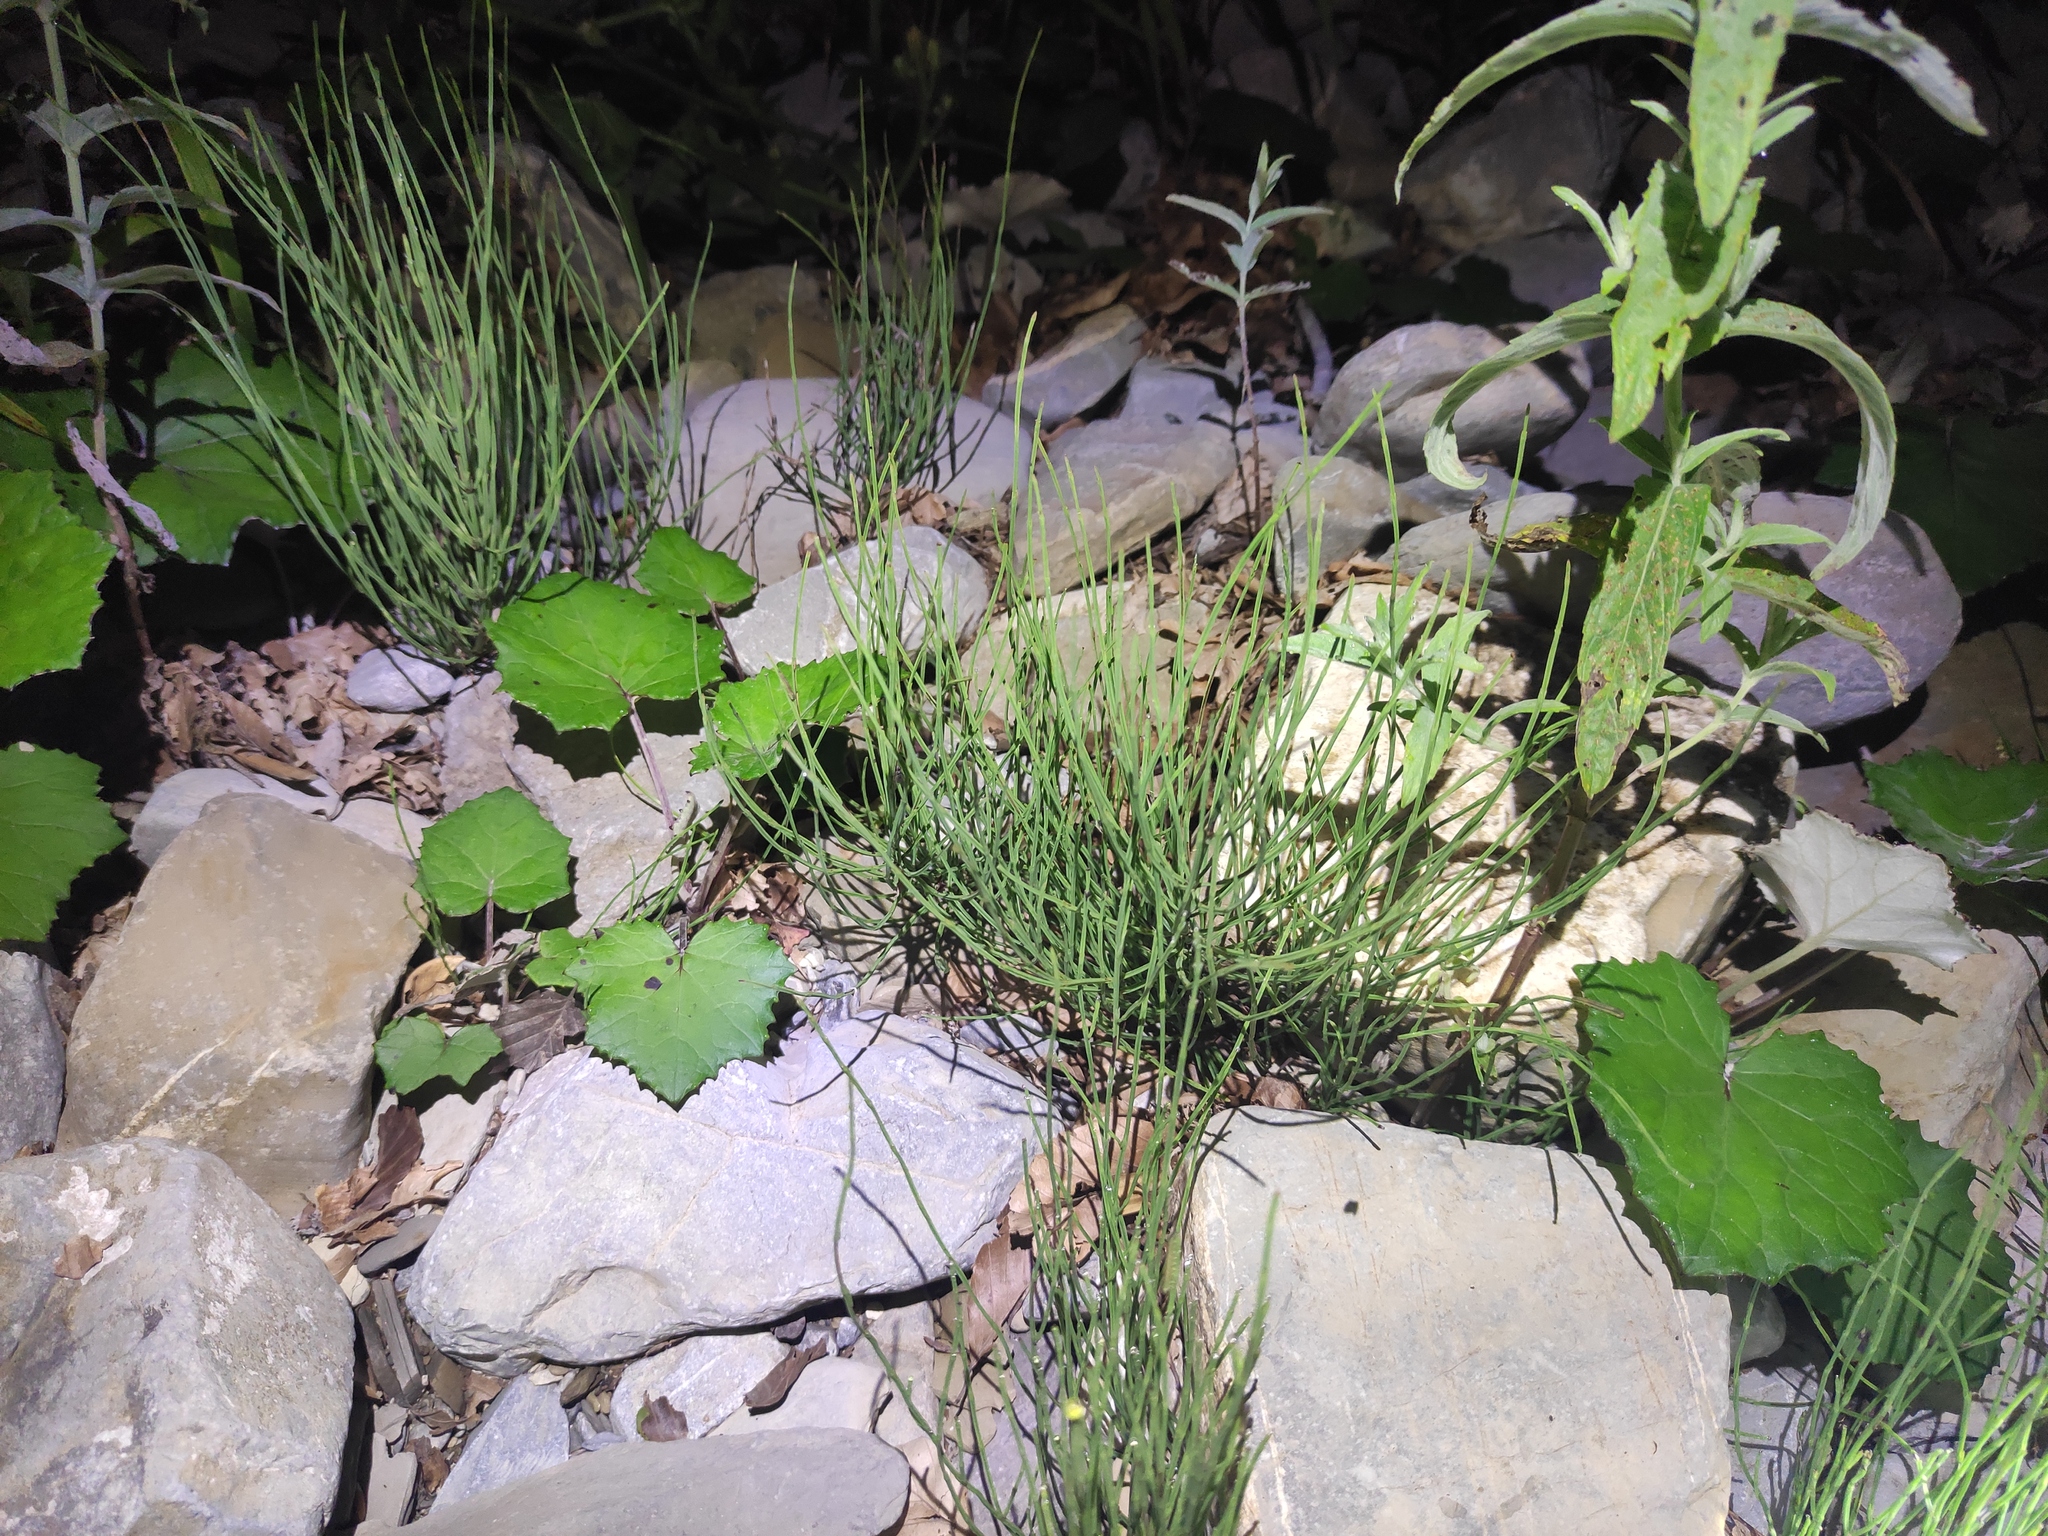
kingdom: Plantae
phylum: Tracheophyta
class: Polypodiopsida
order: Equisetales
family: Equisetaceae
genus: Equisetum
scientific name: Equisetum arvense
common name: Field horsetail
